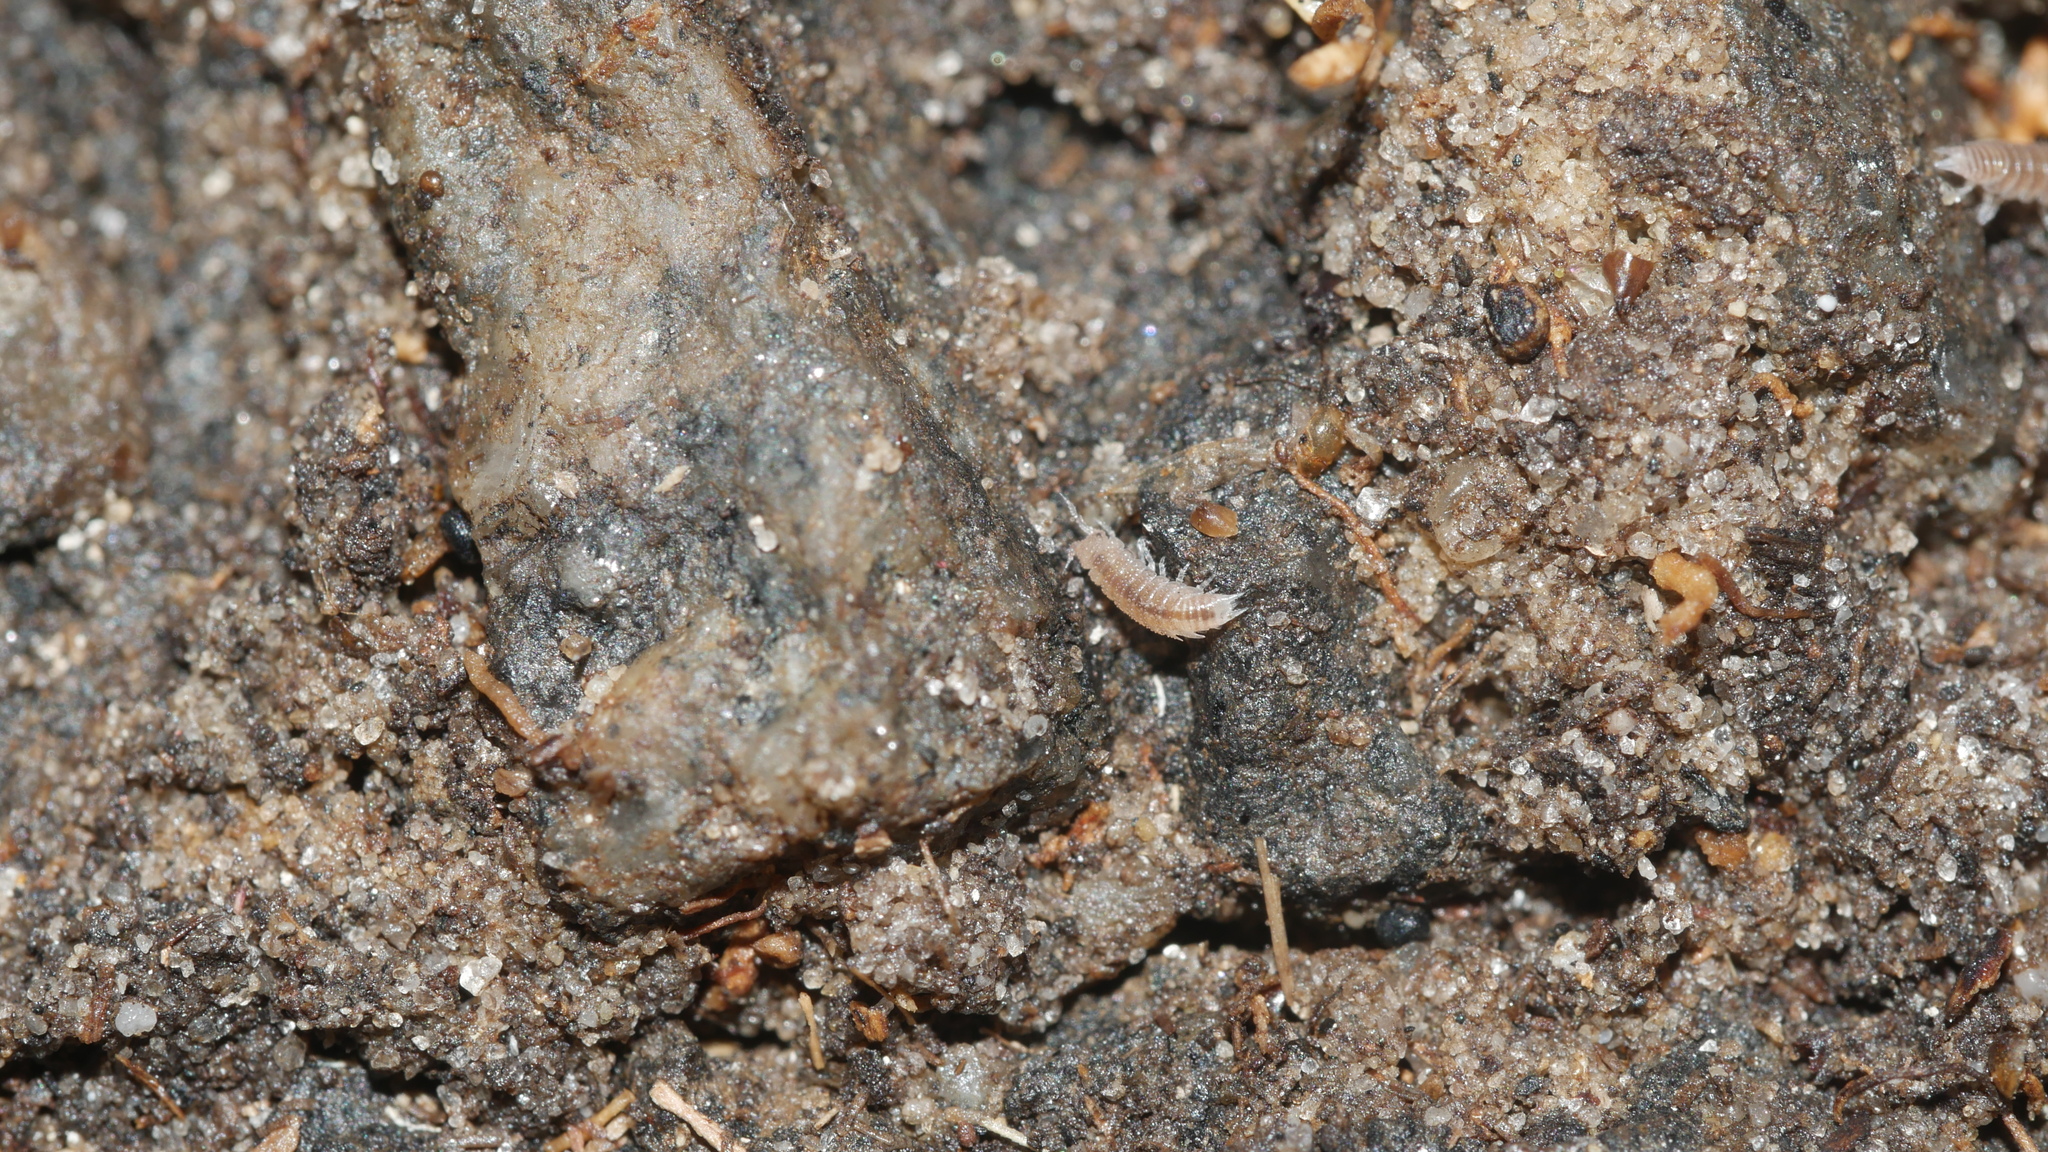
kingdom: Animalia
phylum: Arthropoda
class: Malacostraca
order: Isopoda
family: Trichoniscidae
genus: Miktoniscus
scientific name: Miktoniscus spinosus
